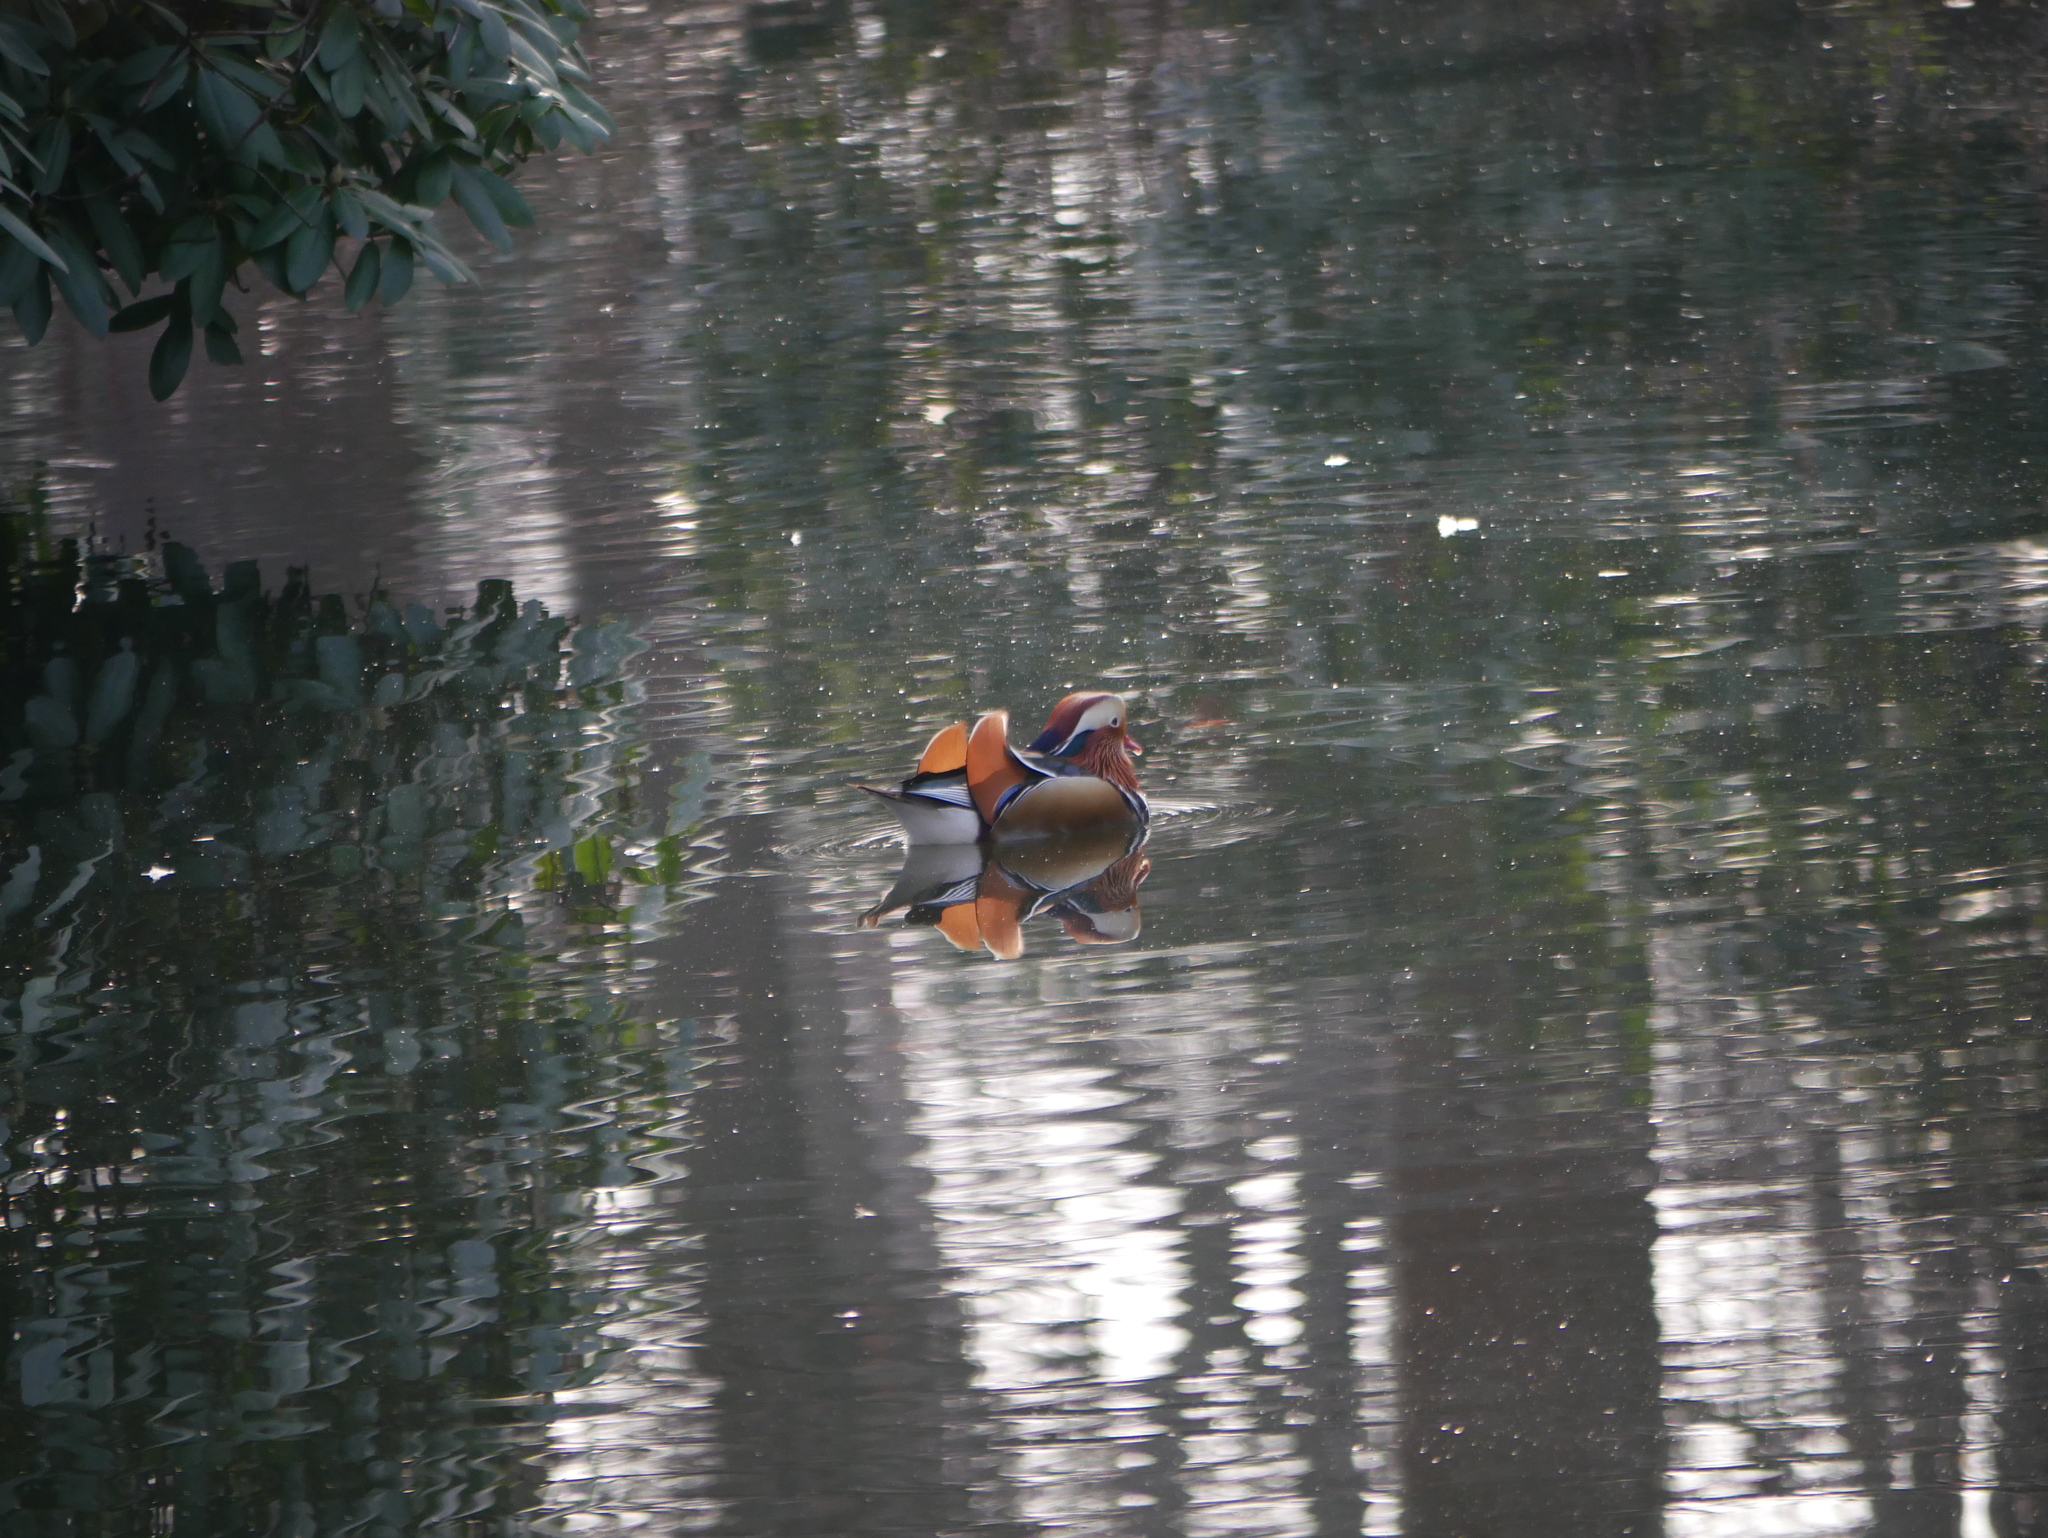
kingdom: Animalia
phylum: Chordata
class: Aves
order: Anseriformes
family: Anatidae
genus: Aix
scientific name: Aix galericulata
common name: Mandarin duck
